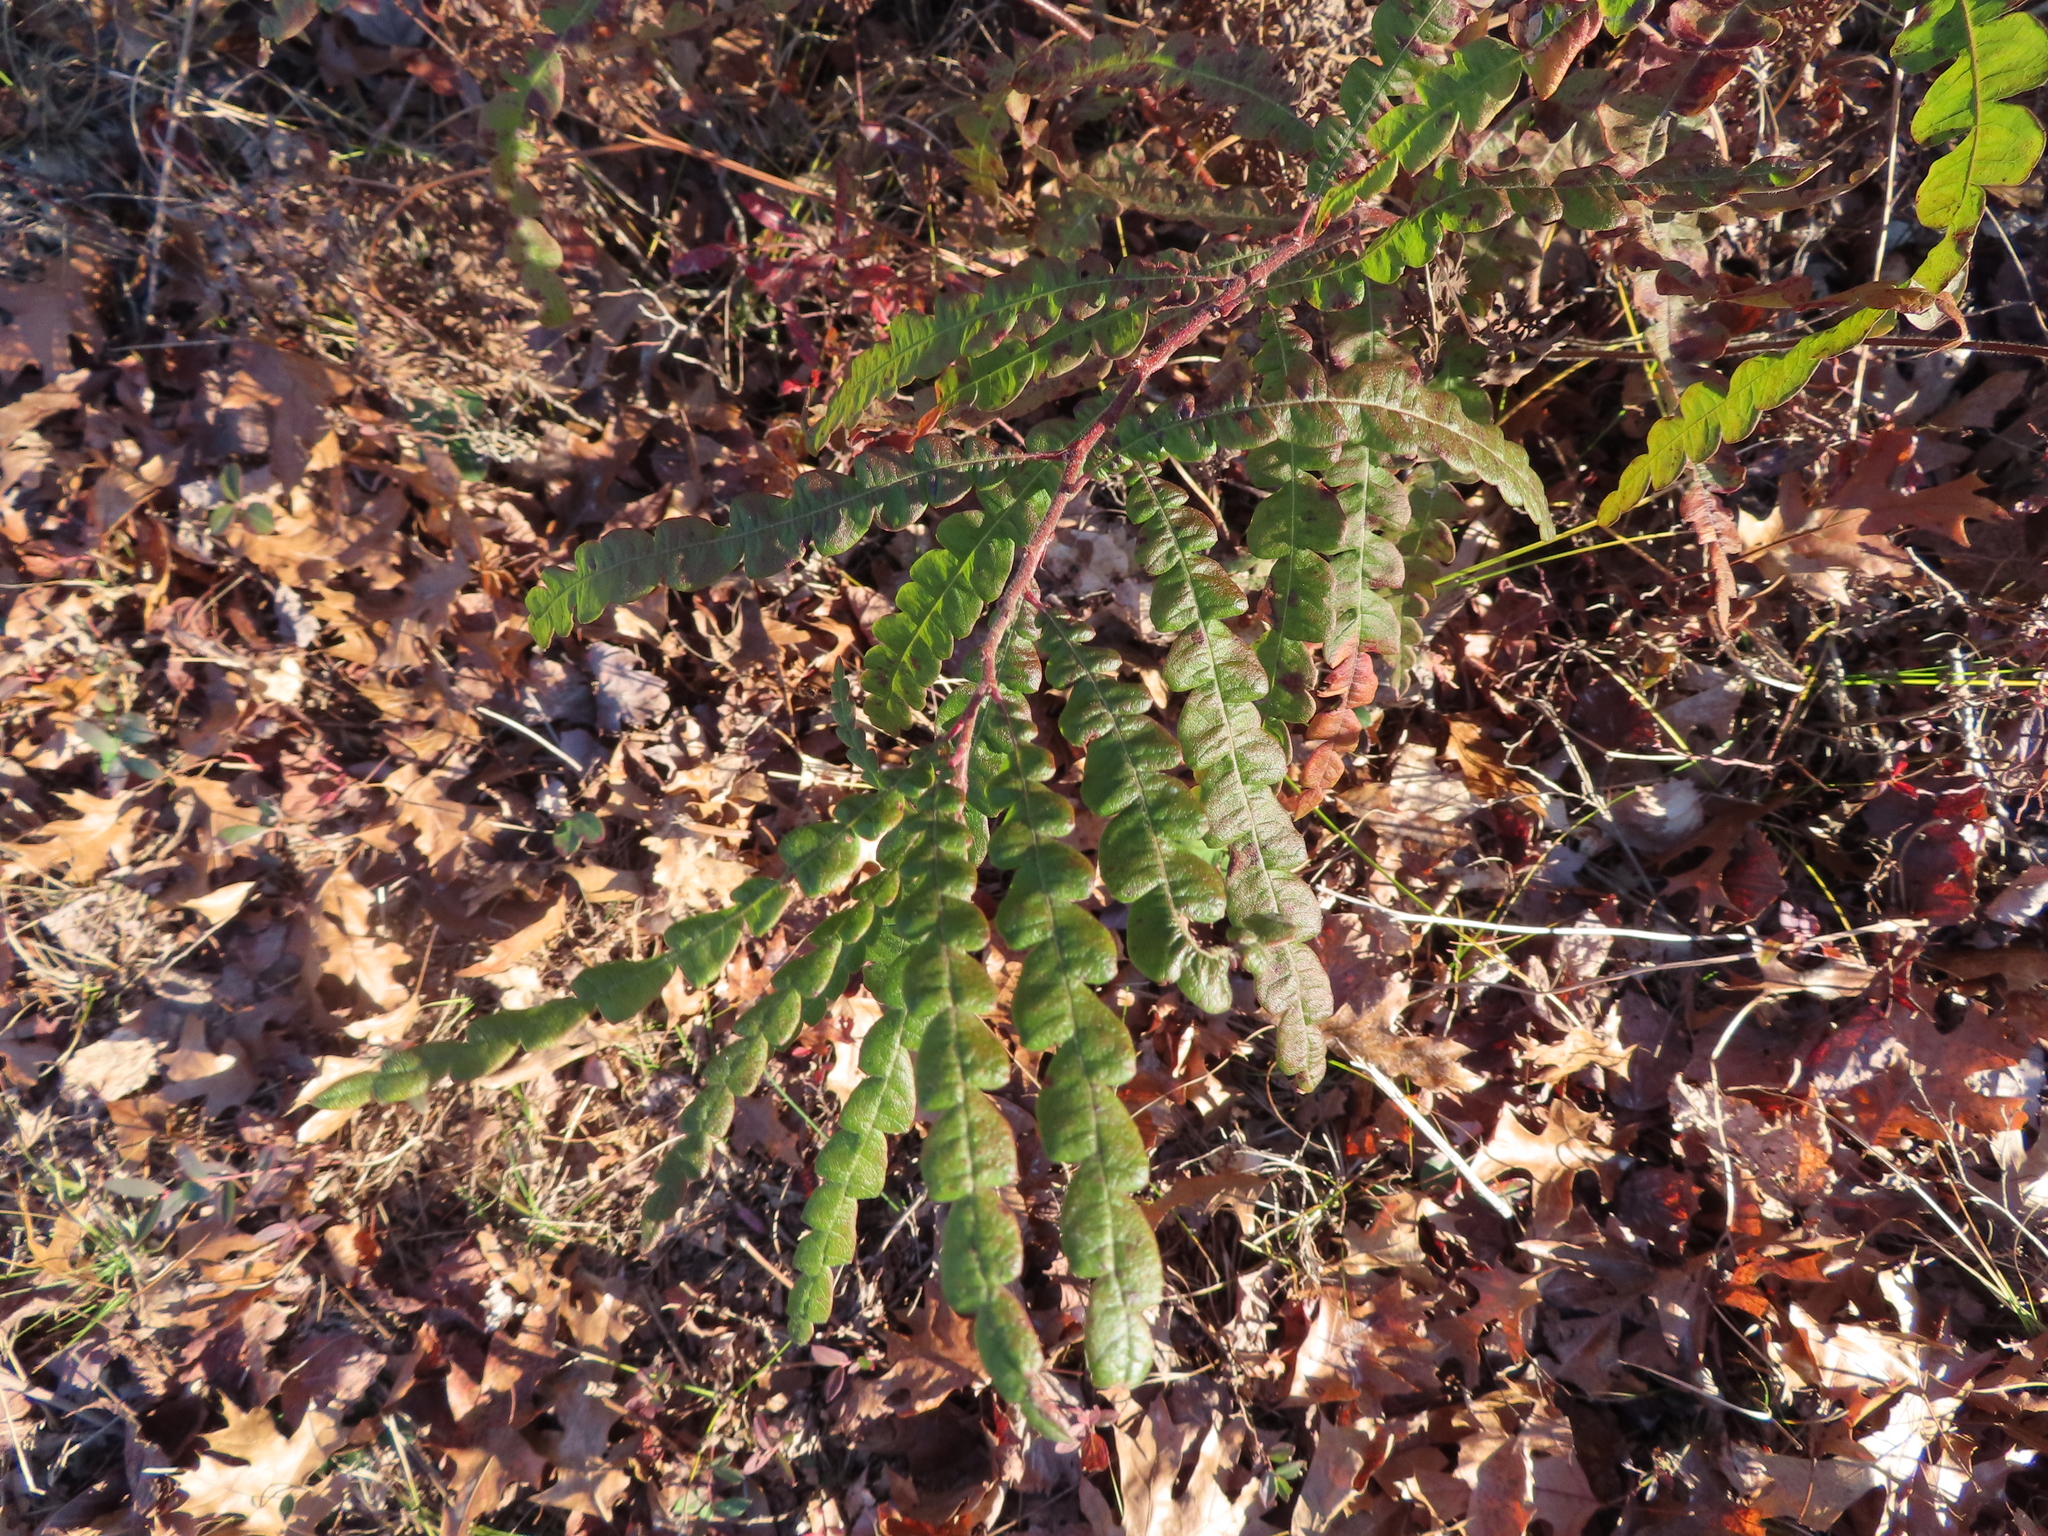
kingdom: Plantae
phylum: Tracheophyta
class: Magnoliopsida
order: Fagales
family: Myricaceae
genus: Comptonia
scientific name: Comptonia peregrina
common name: Sweet-fern
